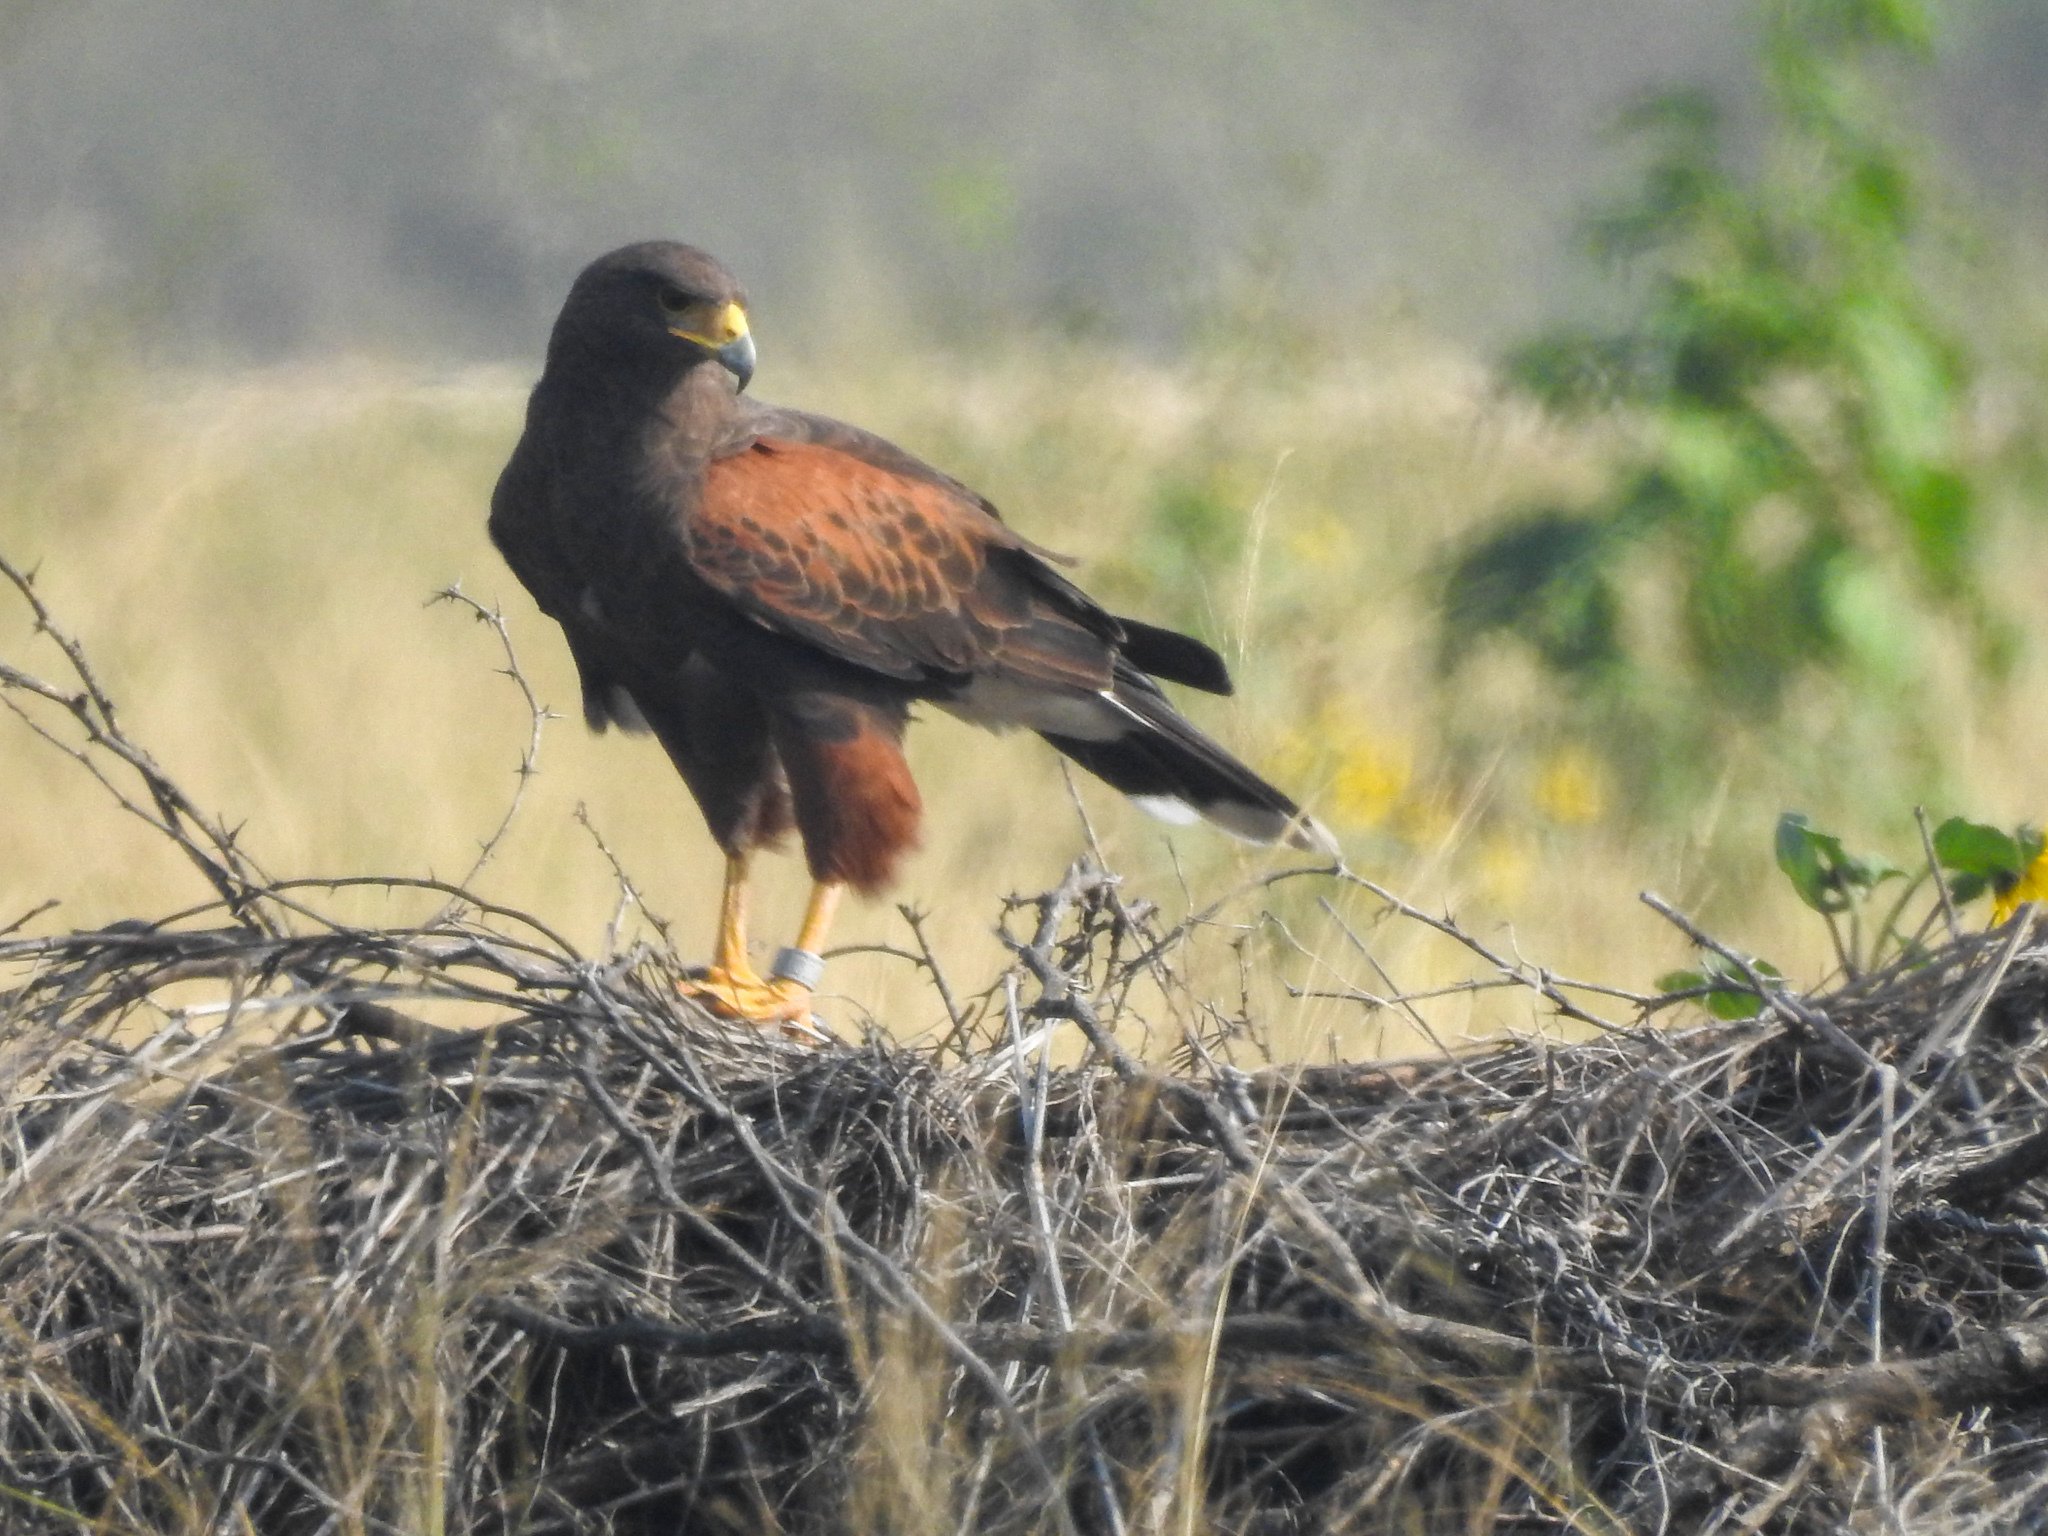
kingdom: Animalia
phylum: Chordata
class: Aves
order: Accipitriformes
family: Accipitridae
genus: Parabuteo
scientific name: Parabuteo unicinctus
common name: Harris's hawk
